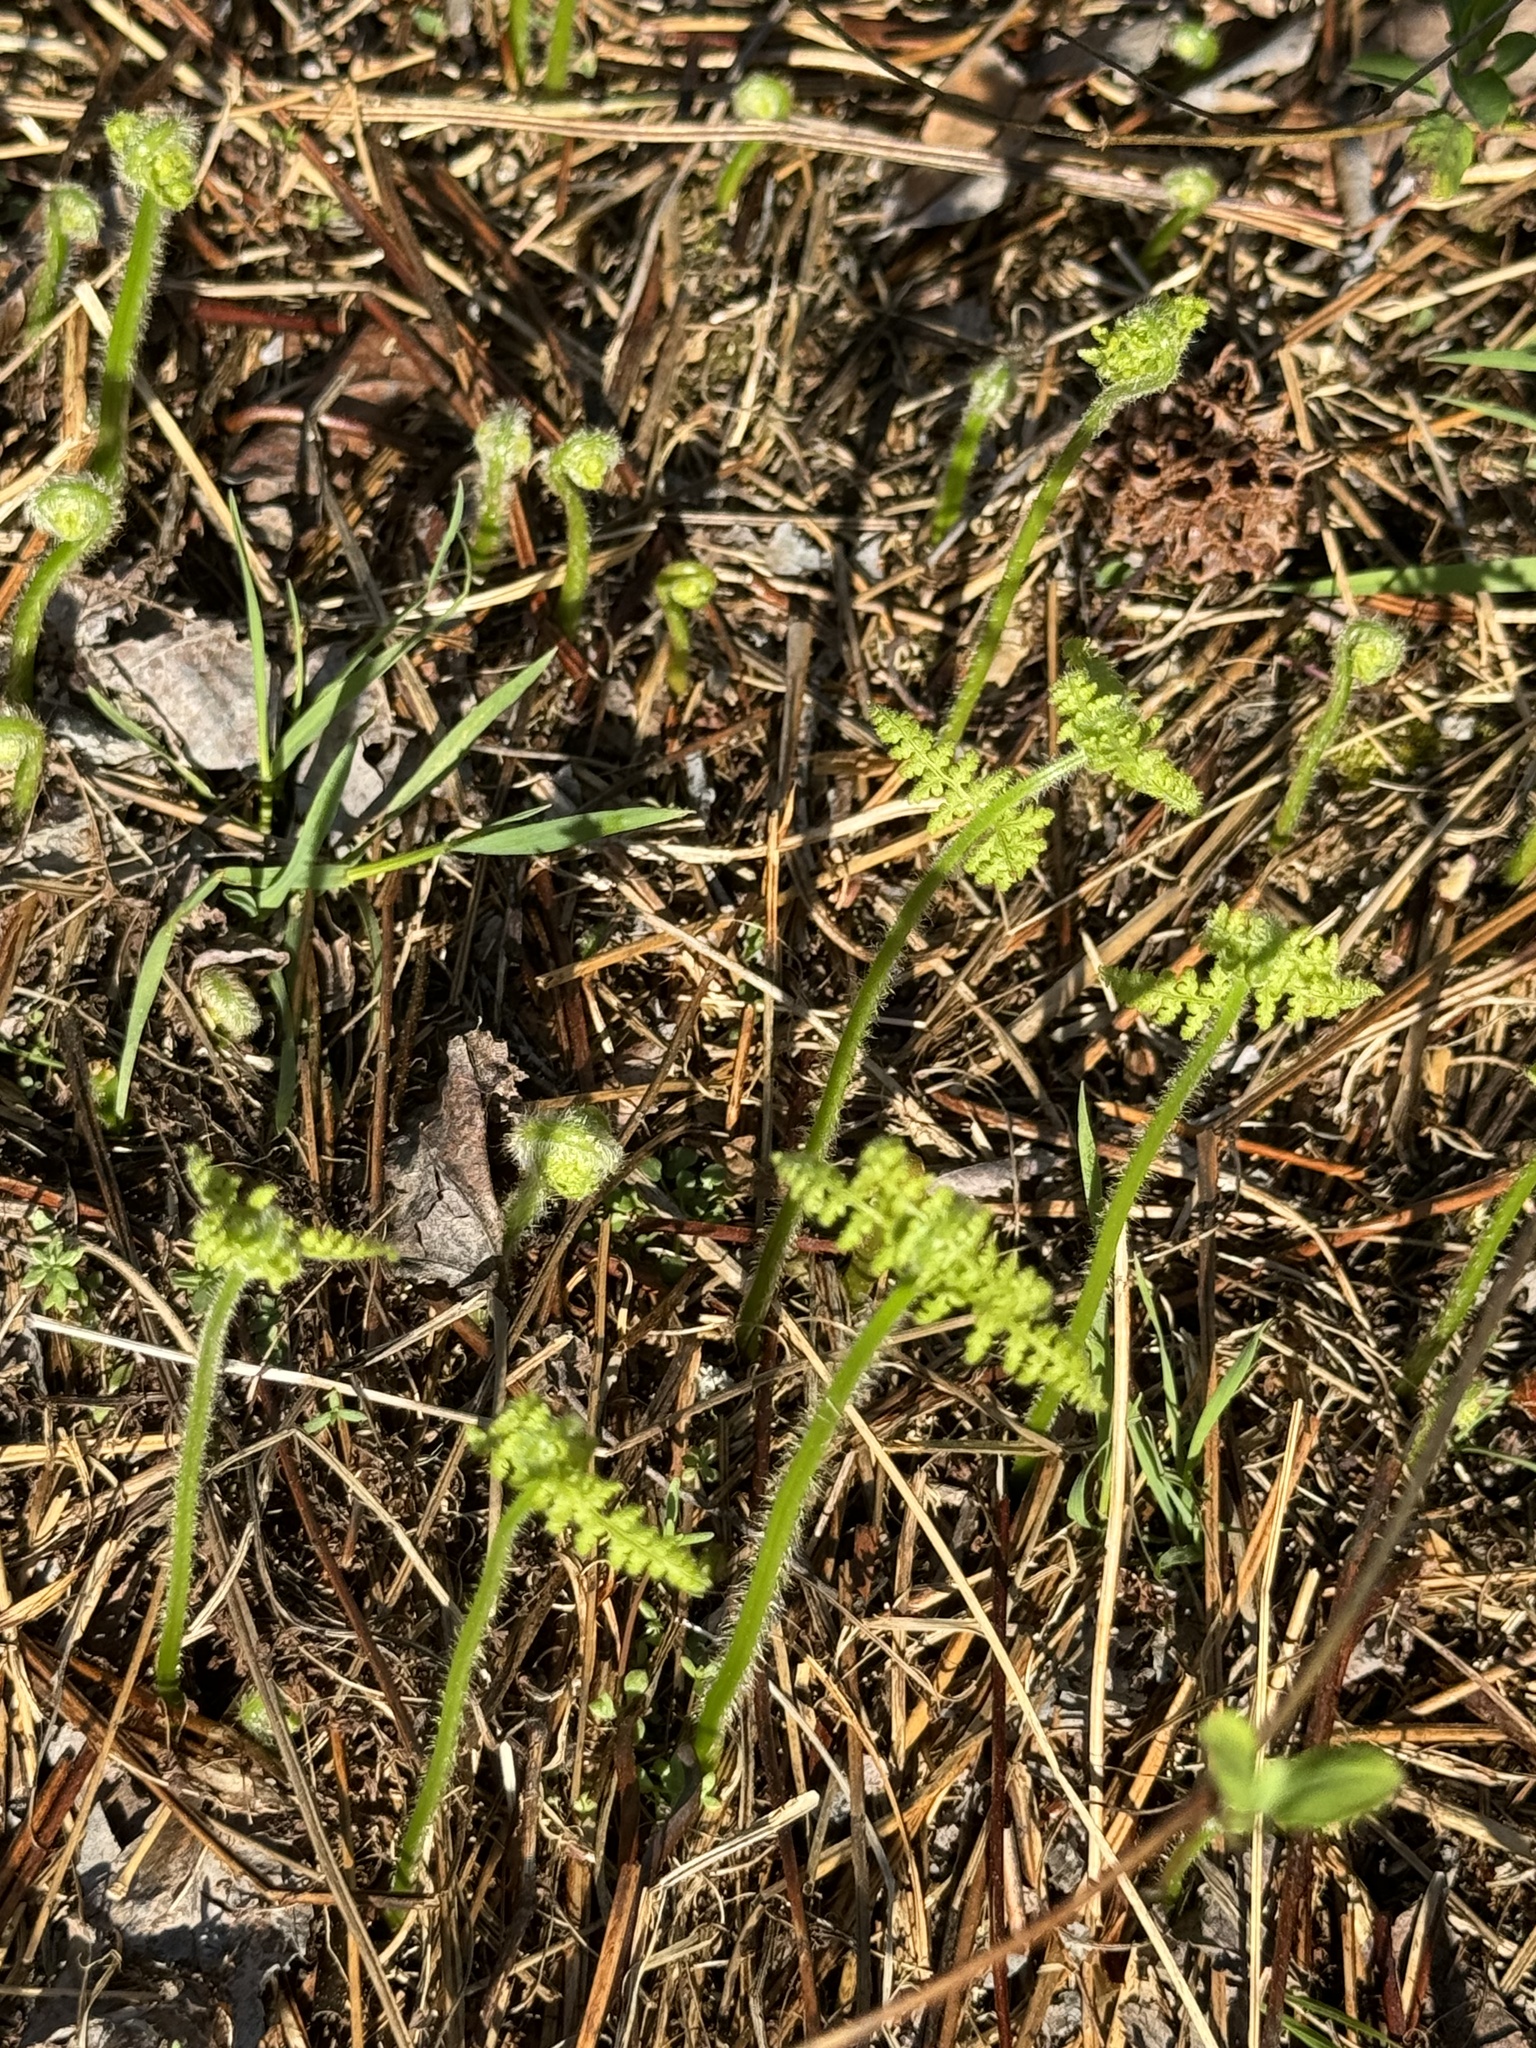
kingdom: Plantae
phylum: Tracheophyta
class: Polypodiopsida
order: Polypodiales
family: Dennstaedtiaceae
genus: Sitobolium
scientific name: Sitobolium punctilobum
